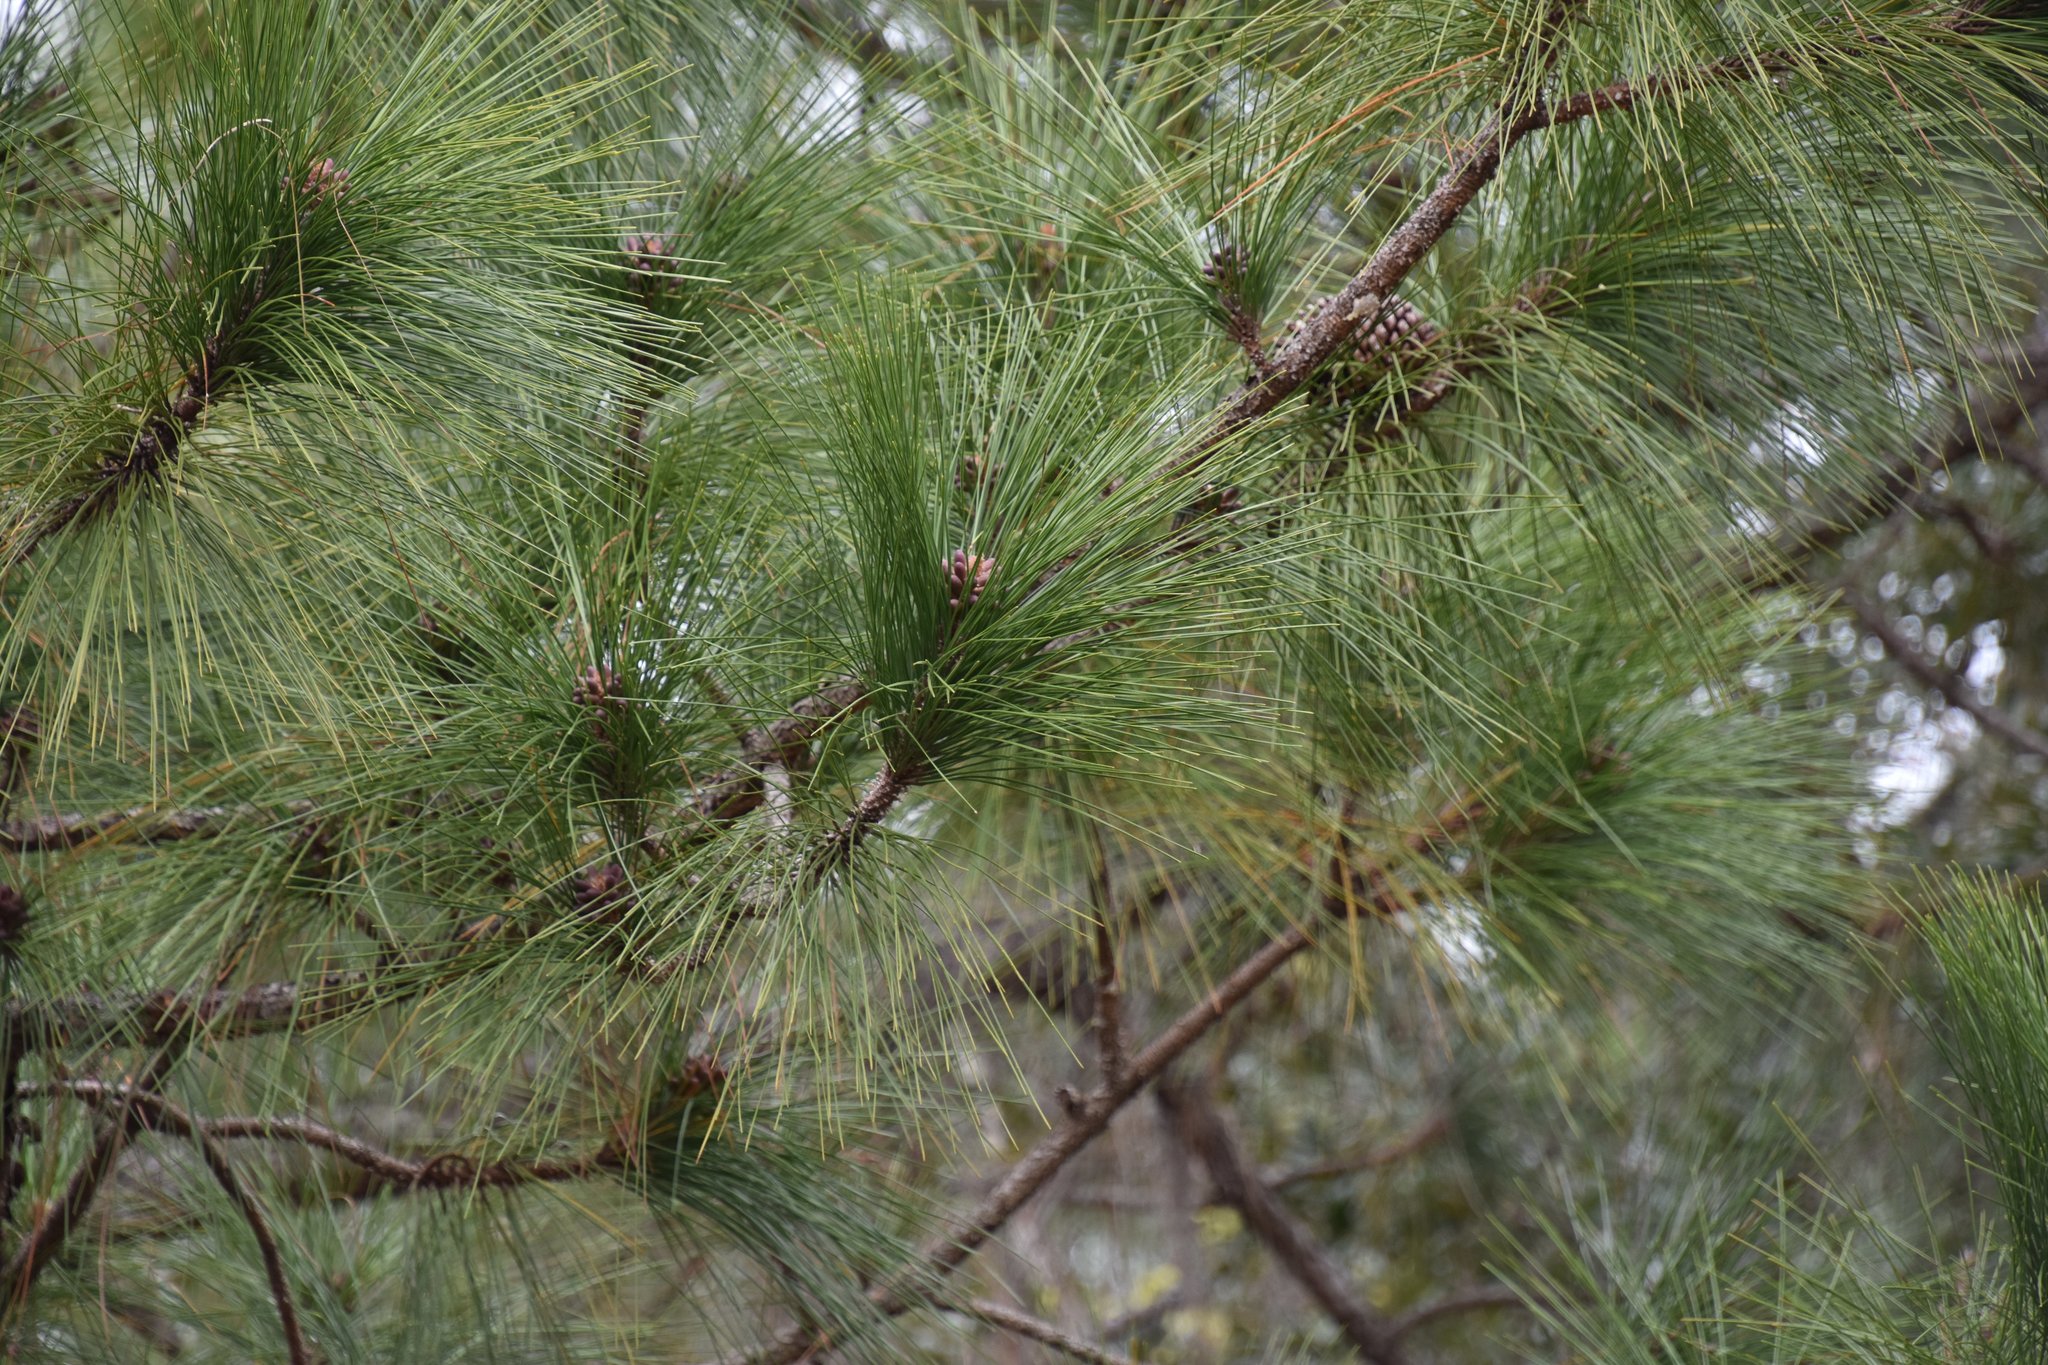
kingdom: Plantae
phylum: Tracheophyta
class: Pinopsida
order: Pinales
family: Pinaceae
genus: Pinus
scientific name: Pinus elliottii
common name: Slash pine
